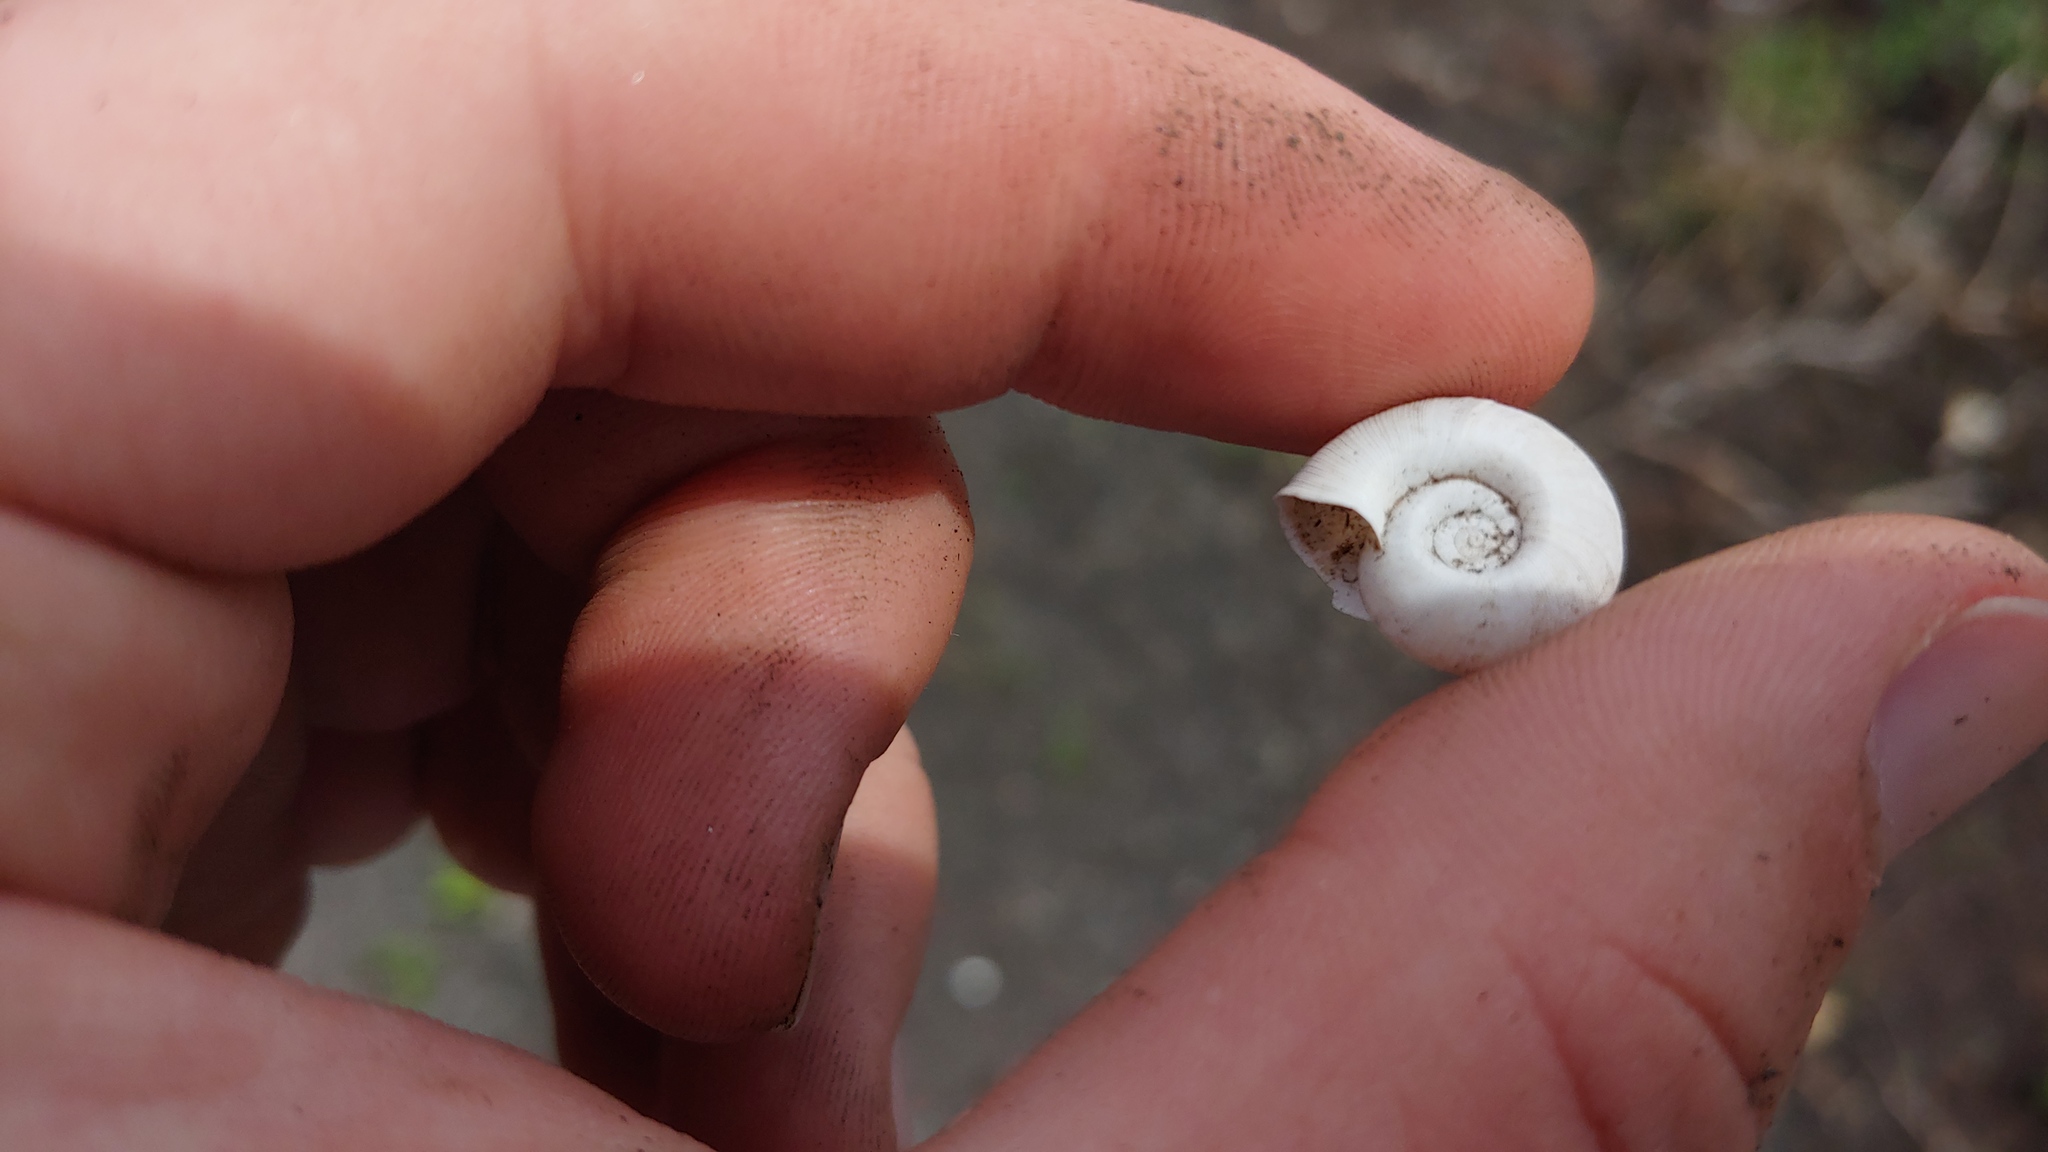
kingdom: Animalia
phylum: Mollusca
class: Gastropoda
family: Planorbidae
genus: Planorbella
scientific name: Planorbella trivolvis
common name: Marsh rams-horn
